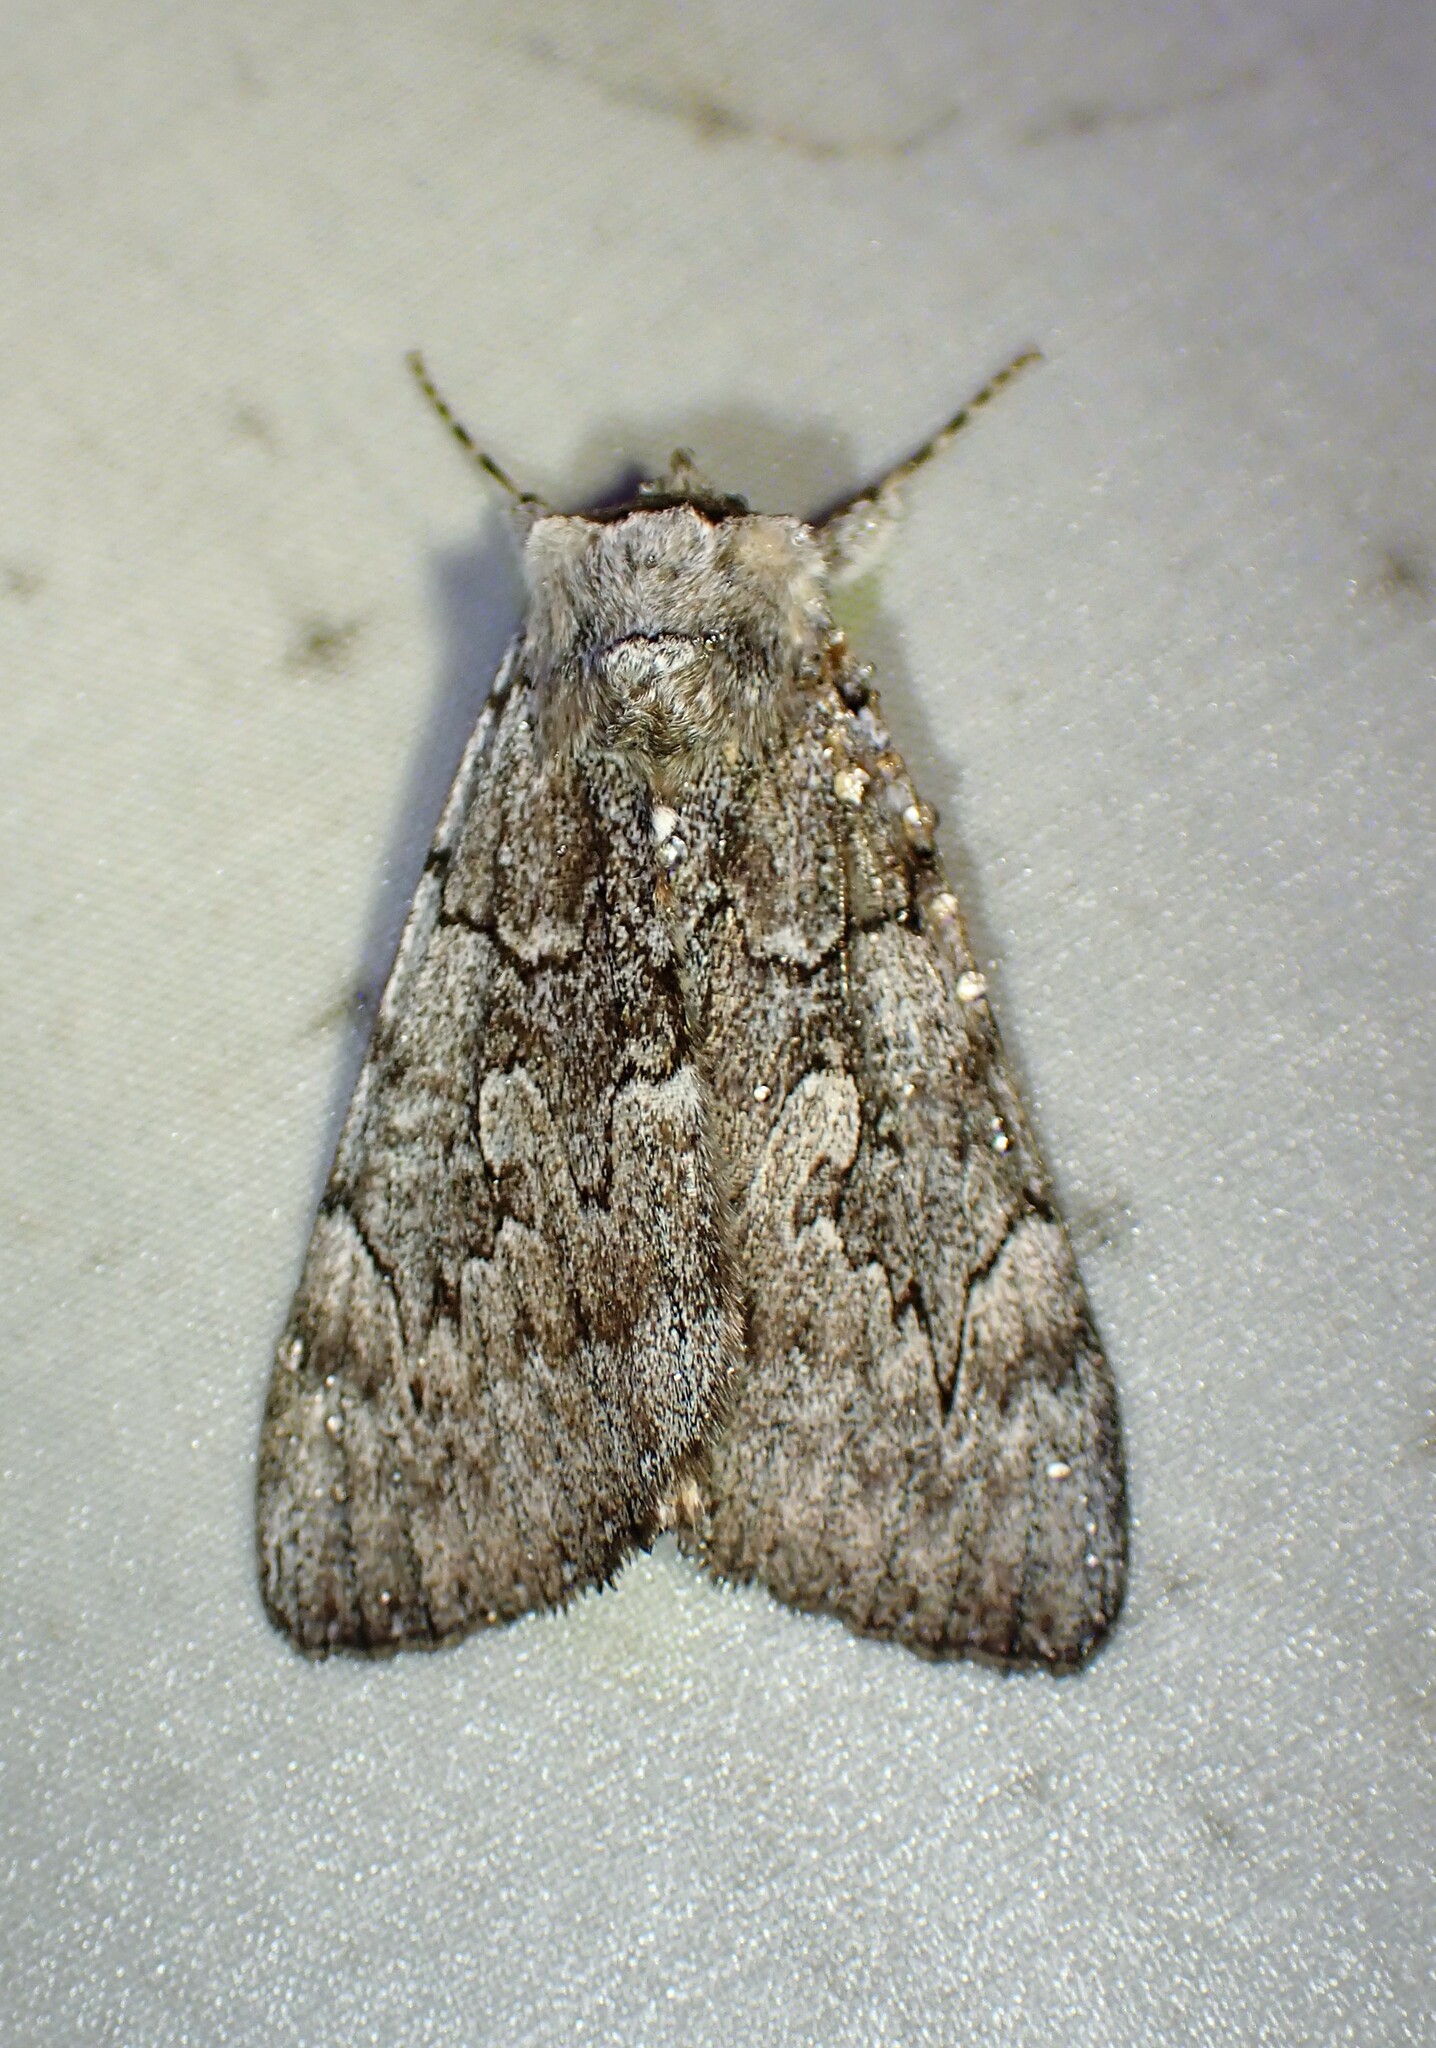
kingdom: Animalia
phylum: Arthropoda
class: Insecta
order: Lepidoptera
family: Erebidae
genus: Catocala
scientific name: Catocala concumbens
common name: Pink underwing
